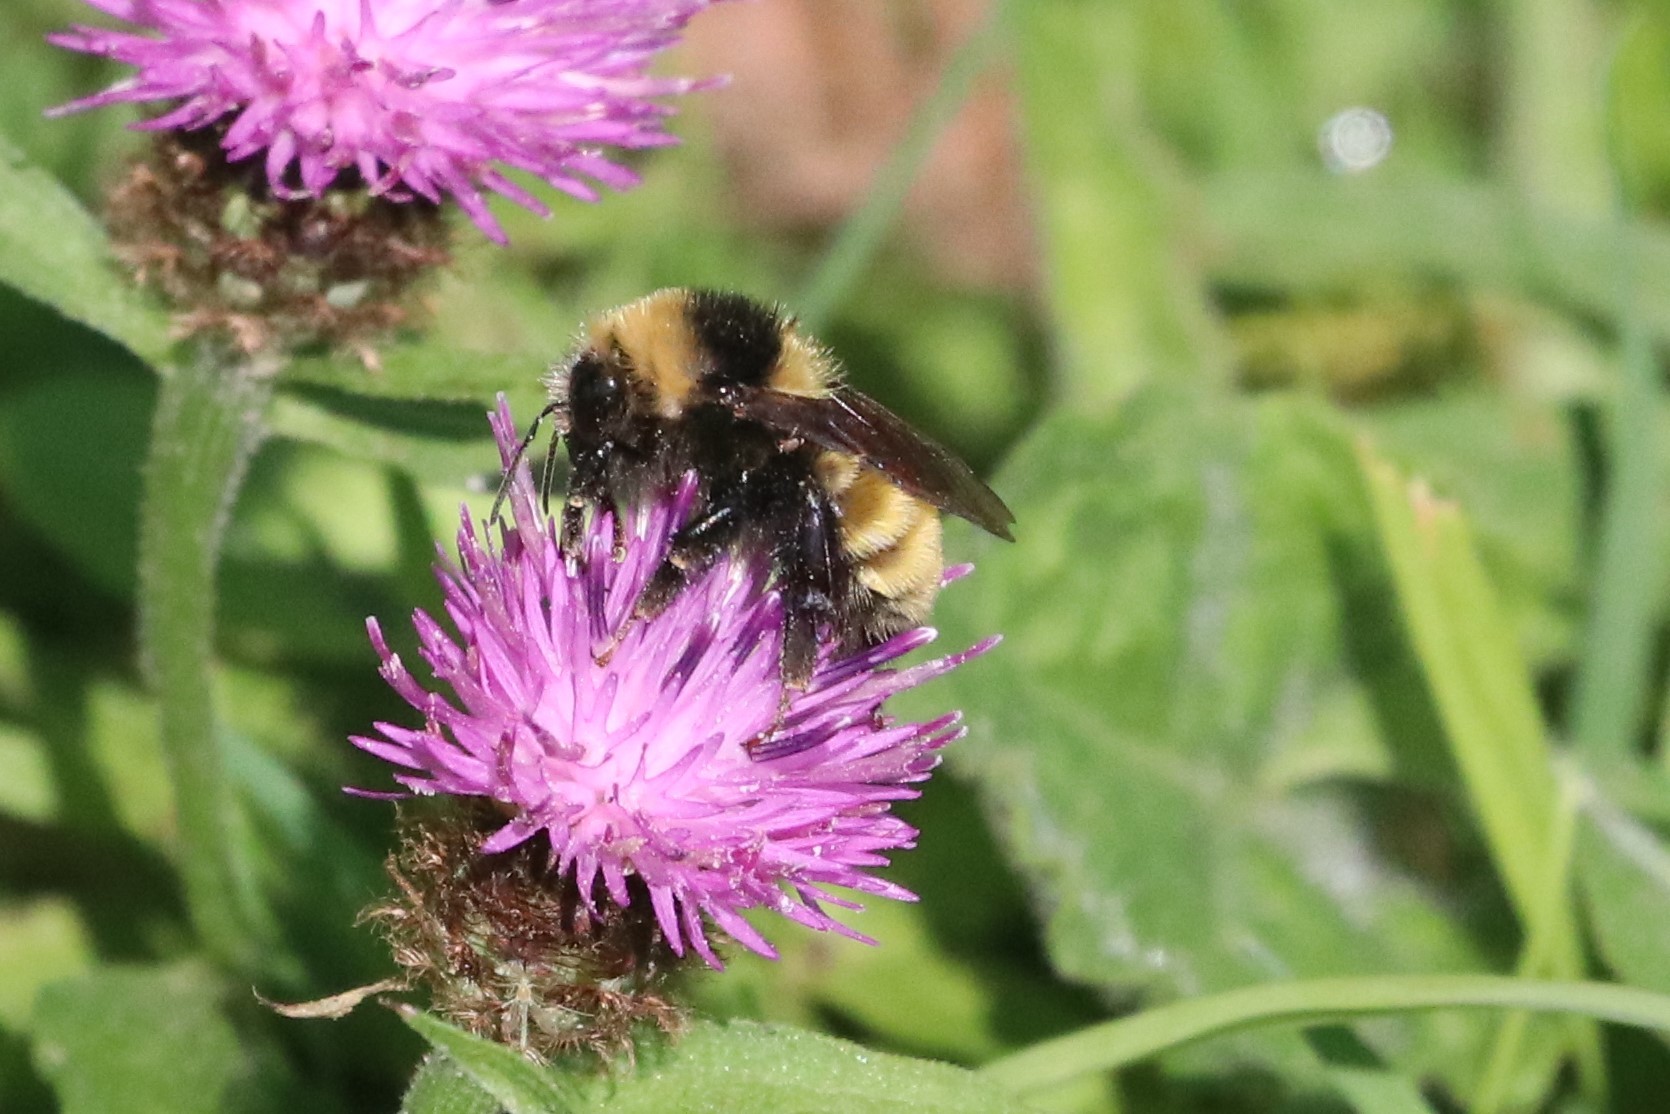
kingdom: Animalia
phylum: Arthropoda
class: Insecta
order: Hymenoptera
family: Apidae
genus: Bombus
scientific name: Bombus borealis
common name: Northern amber bumble bee
